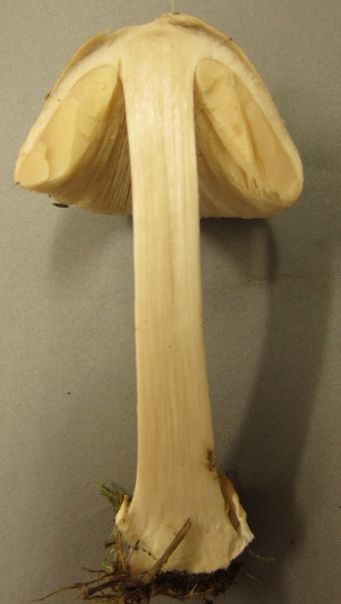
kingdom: Fungi
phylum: Basidiomycota
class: Agaricomycetes
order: Agaricales
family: Pluteaceae
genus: Volvopluteus
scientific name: Volvopluteus gloiocephalus
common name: Stubble rosegill
